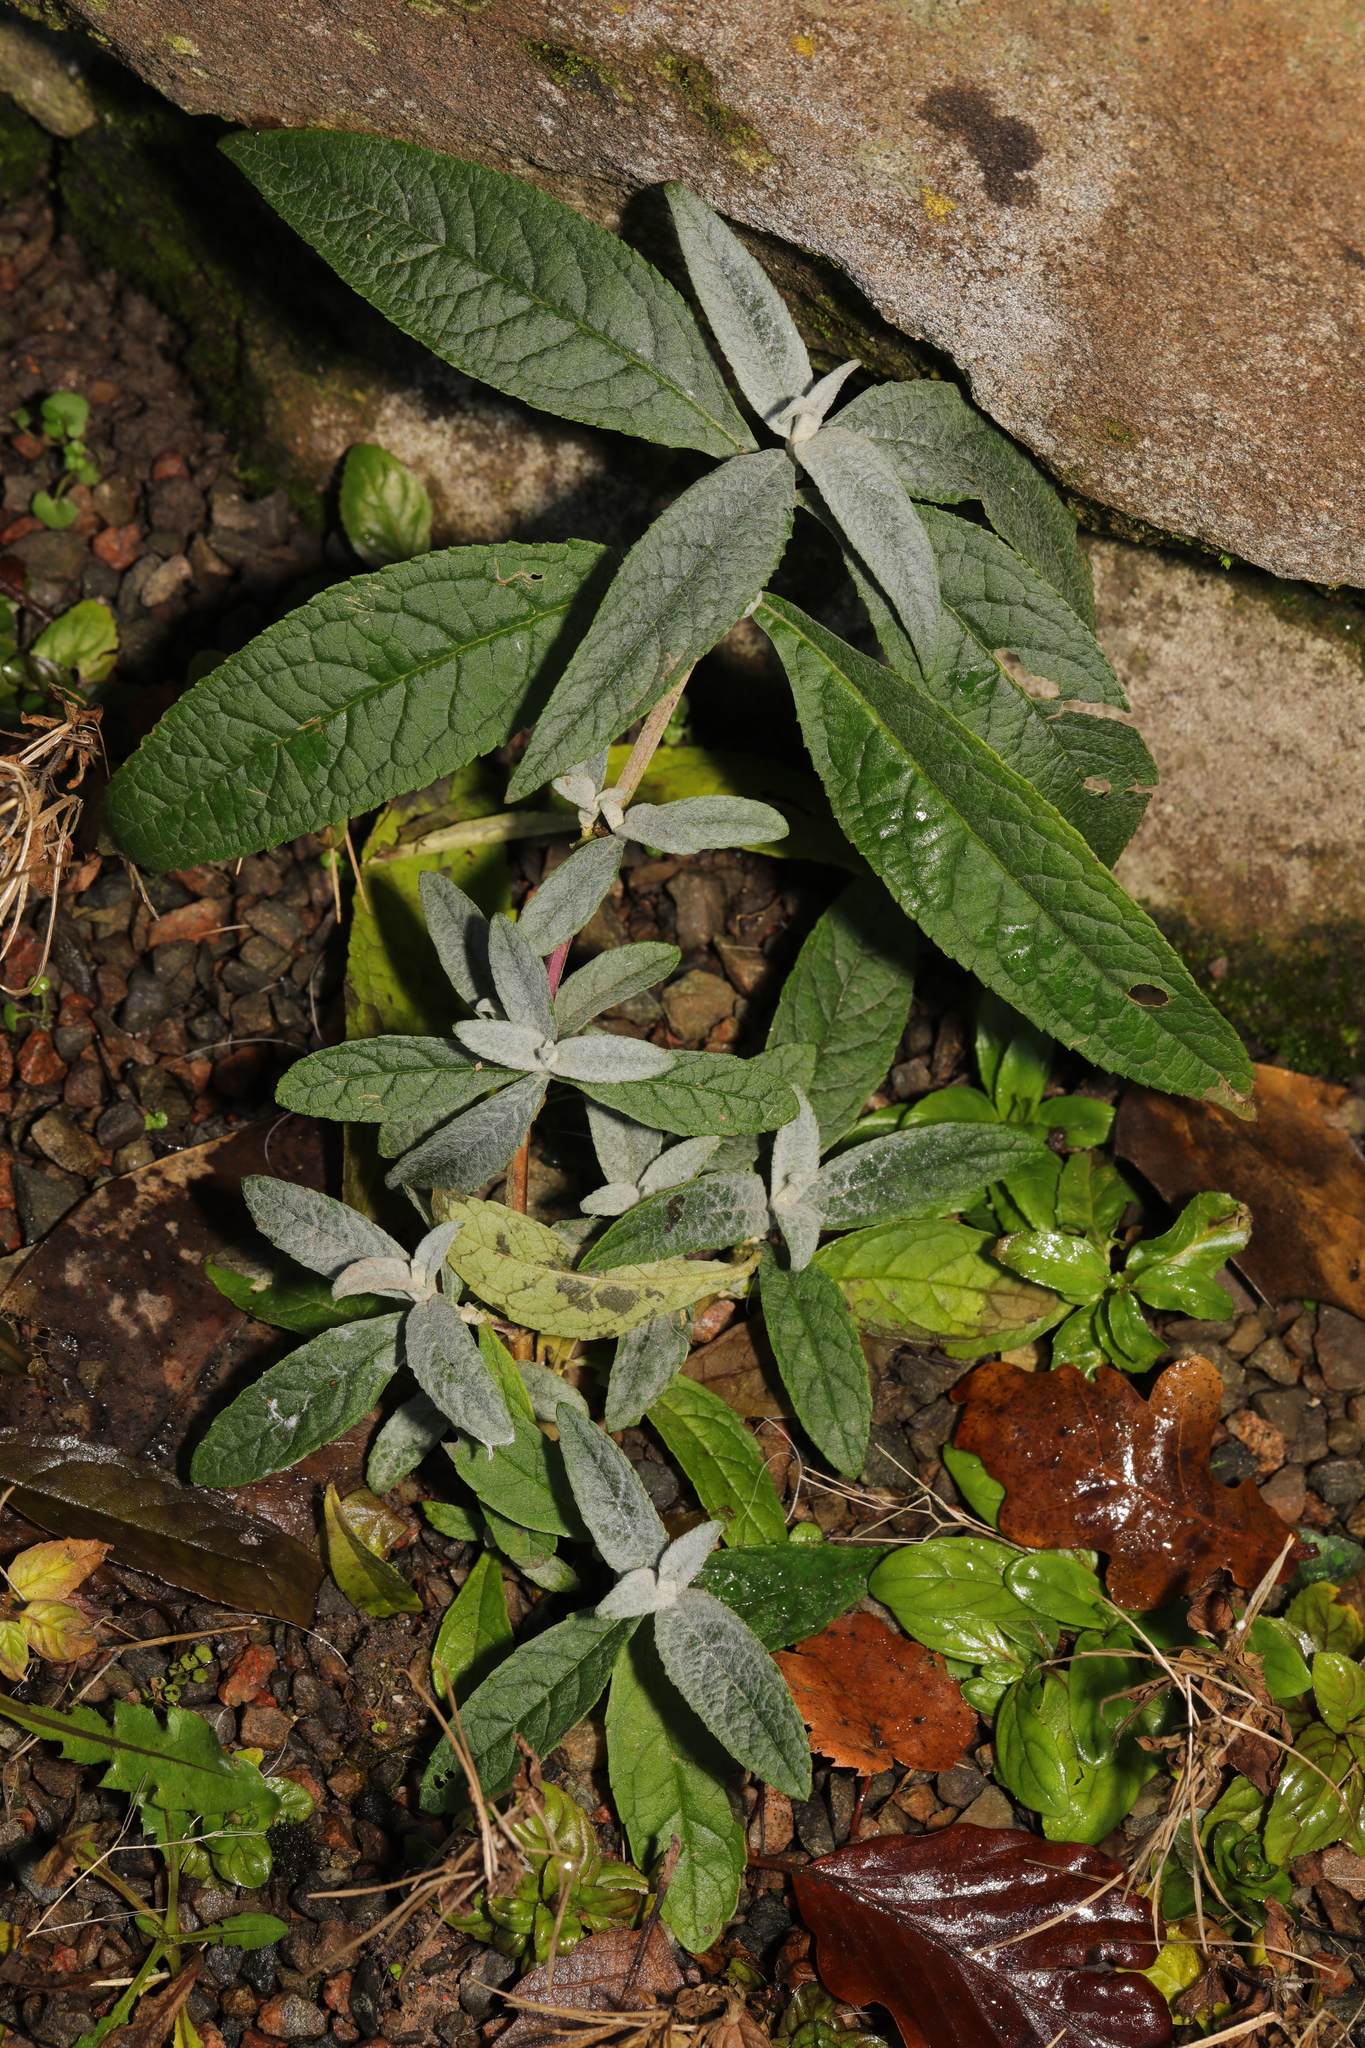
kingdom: Plantae
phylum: Tracheophyta
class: Magnoliopsida
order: Lamiales
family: Scrophulariaceae
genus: Buddleja
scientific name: Buddleja davidii
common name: Butterfly-bush
